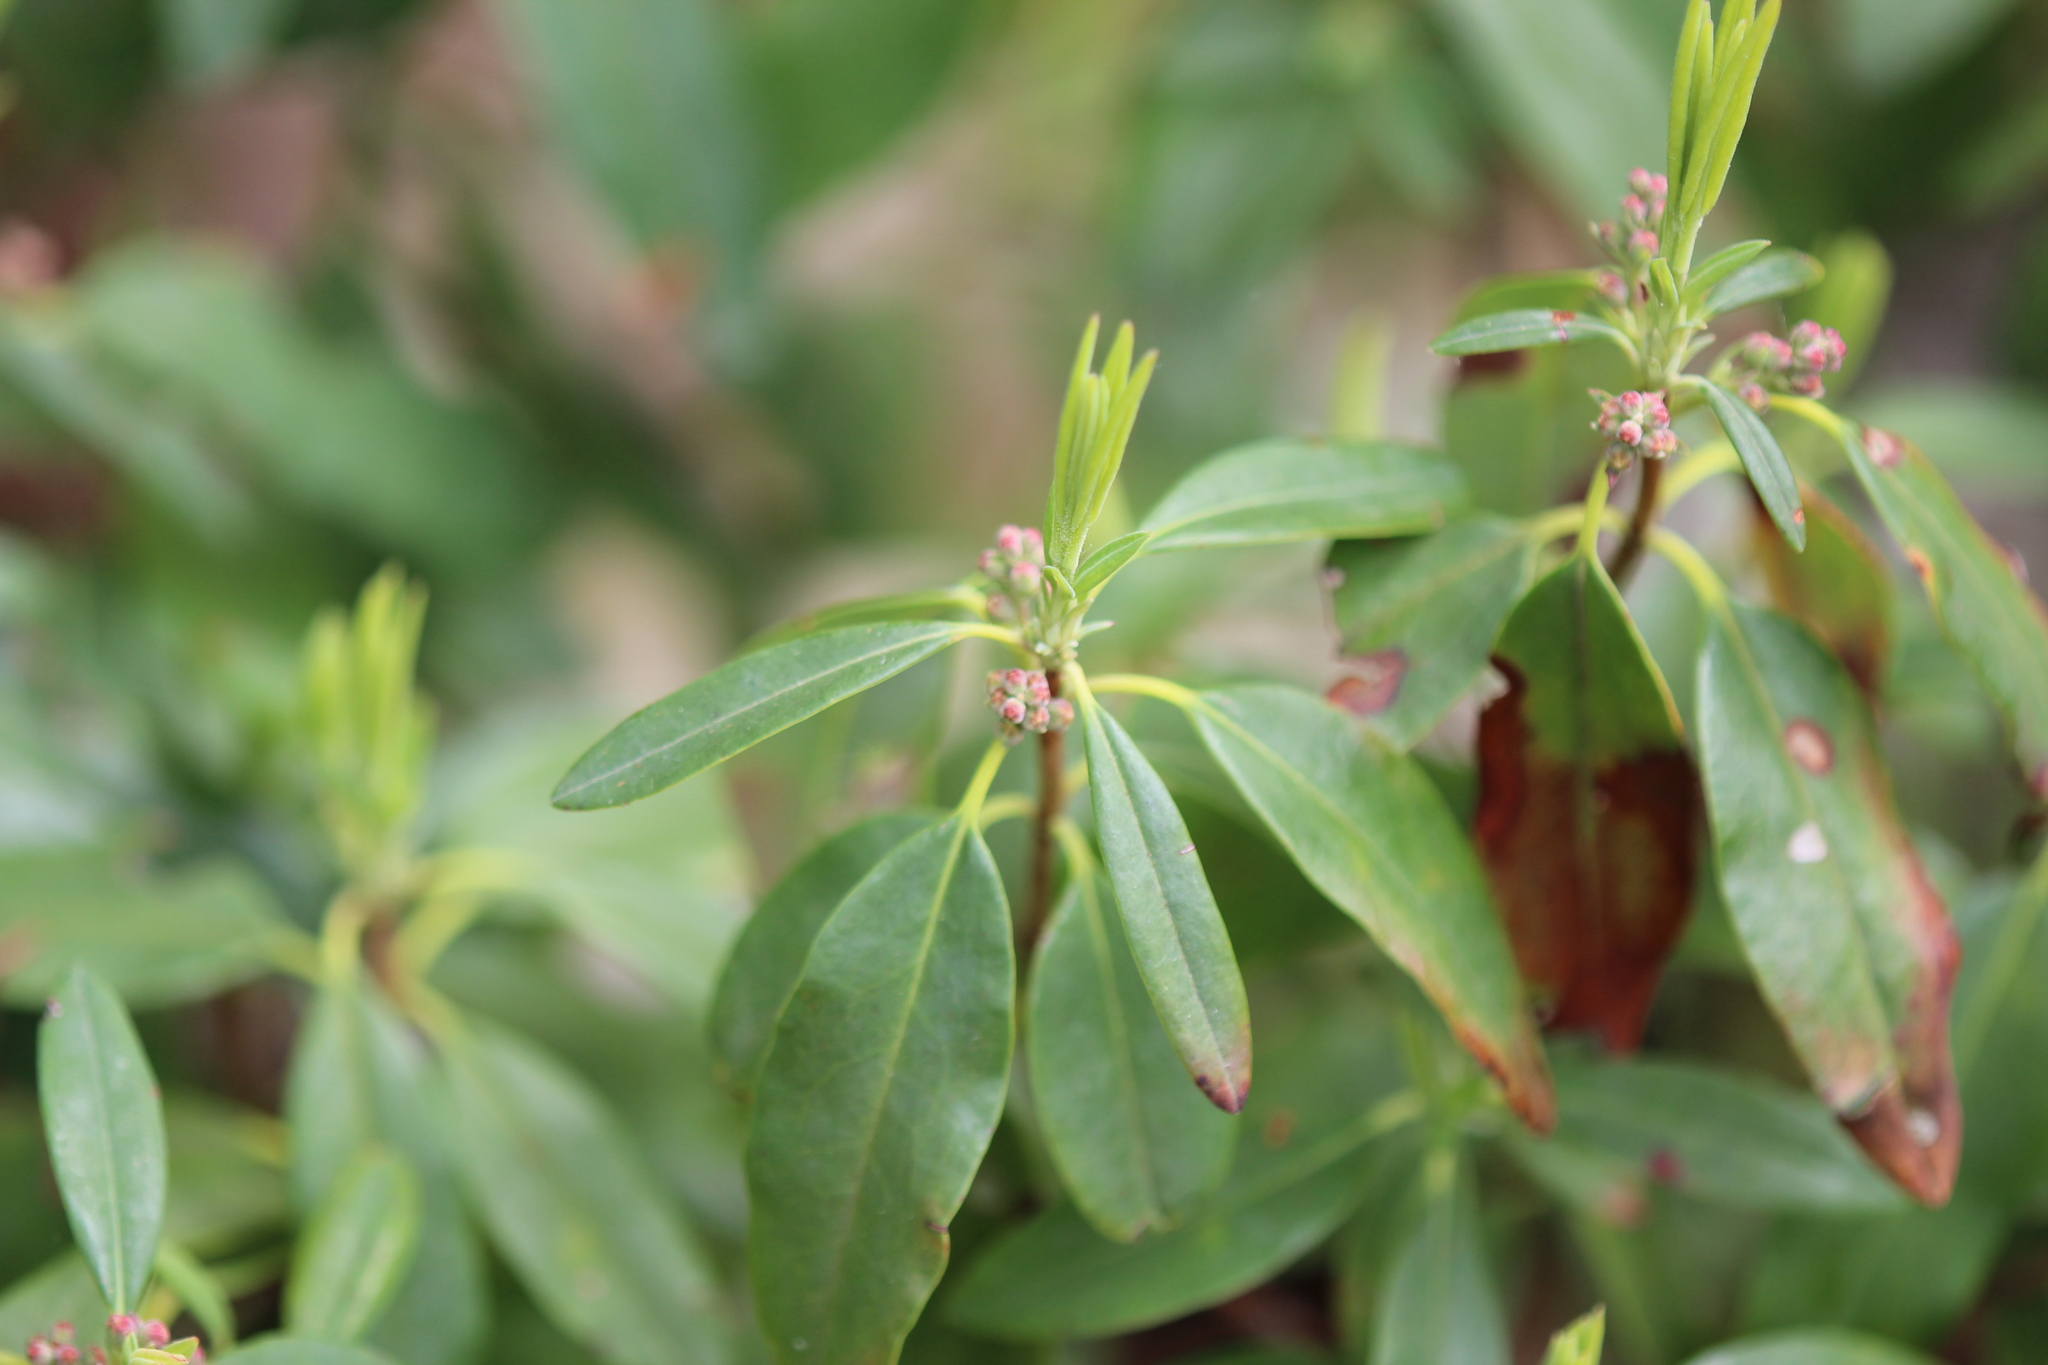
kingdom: Plantae
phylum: Tracheophyta
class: Magnoliopsida
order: Ericales
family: Ericaceae
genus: Kalmia
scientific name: Kalmia angustifolia
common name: Sheep-laurel
